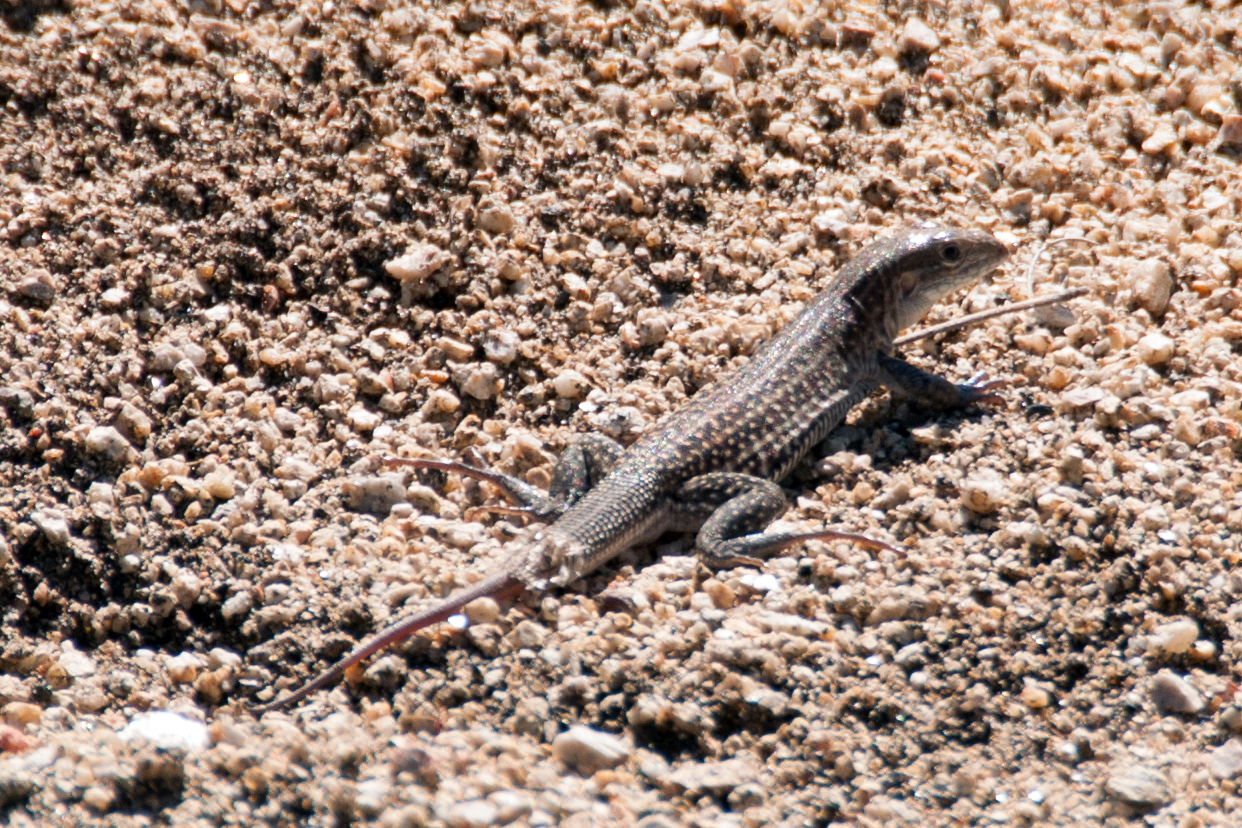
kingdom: Animalia
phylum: Chordata
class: Squamata
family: Teiidae
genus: Aspidoscelis
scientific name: Aspidoscelis exsanguis
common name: Chihuahuan spotted whiptail
